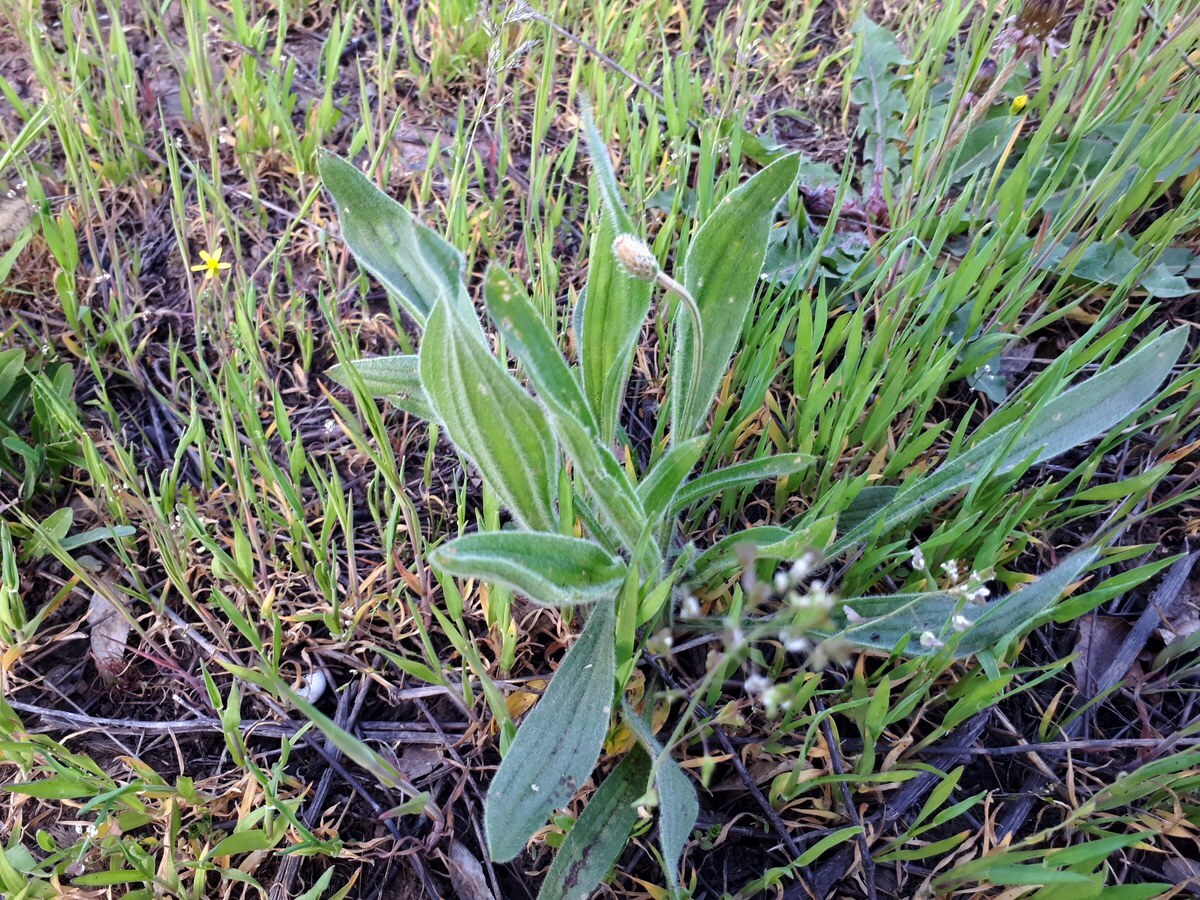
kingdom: Plantae
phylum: Tracheophyta
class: Magnoliopsida
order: Lamiales
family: Plantaginaceae
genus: Plantago
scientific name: Plantago lanceolata
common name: Ribwort plantain
